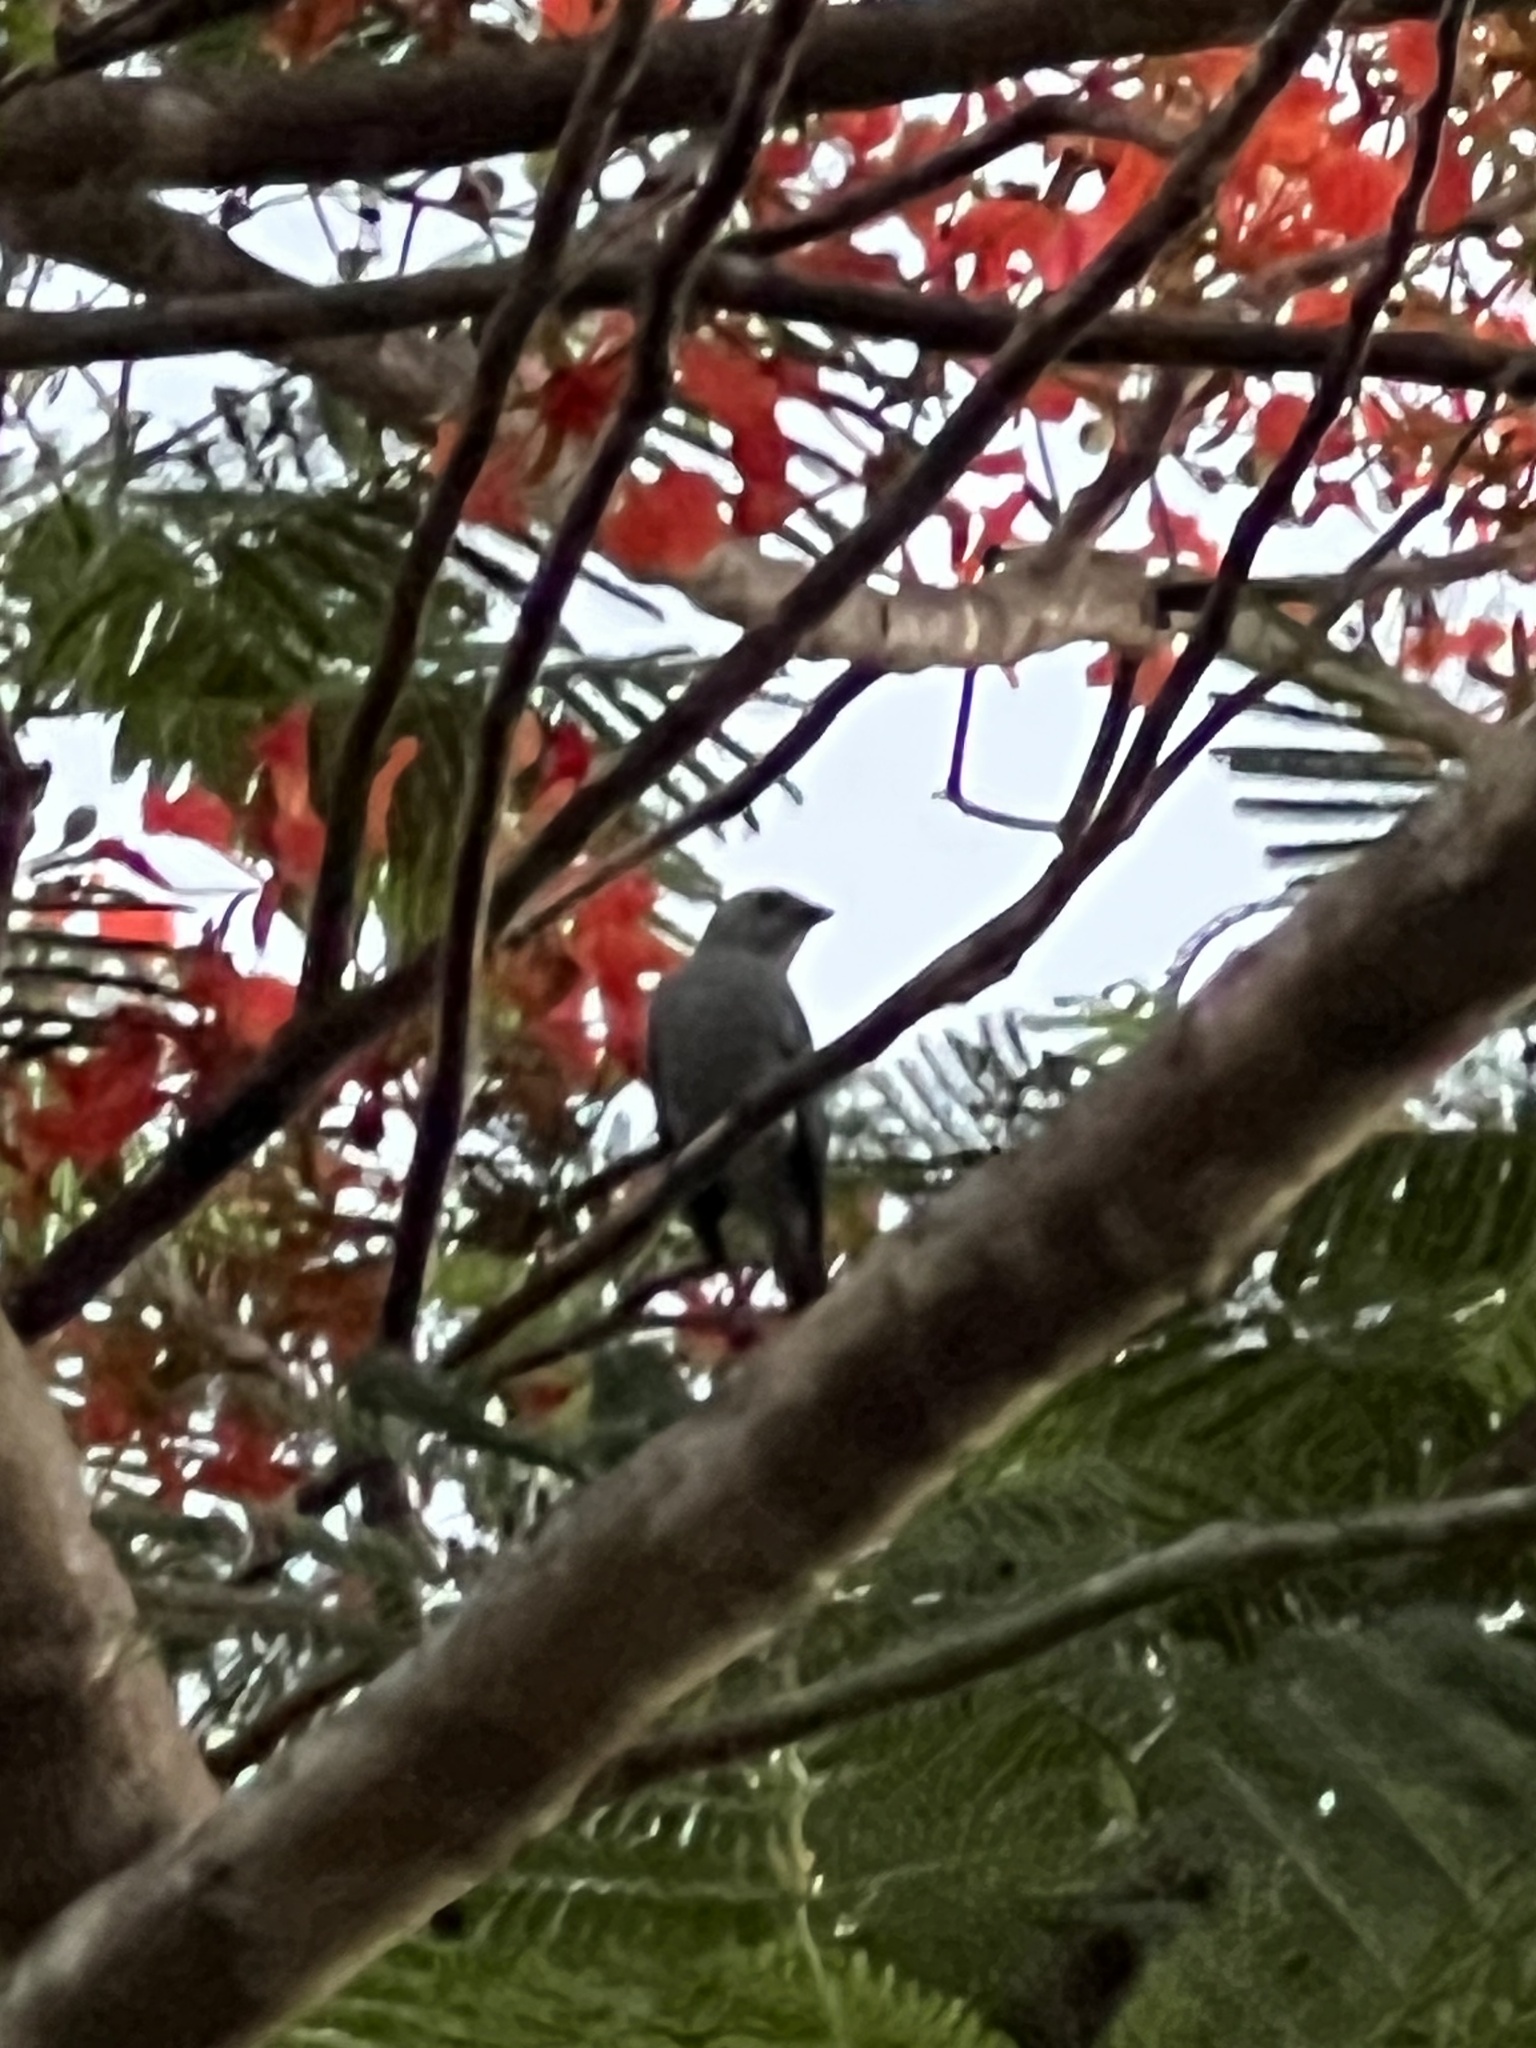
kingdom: Animalia
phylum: Chordata
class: Aves
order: Passeriformes
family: Thraupidae
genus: Thraupis
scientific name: Thraupis episcopus
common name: Blue-grey tanager
